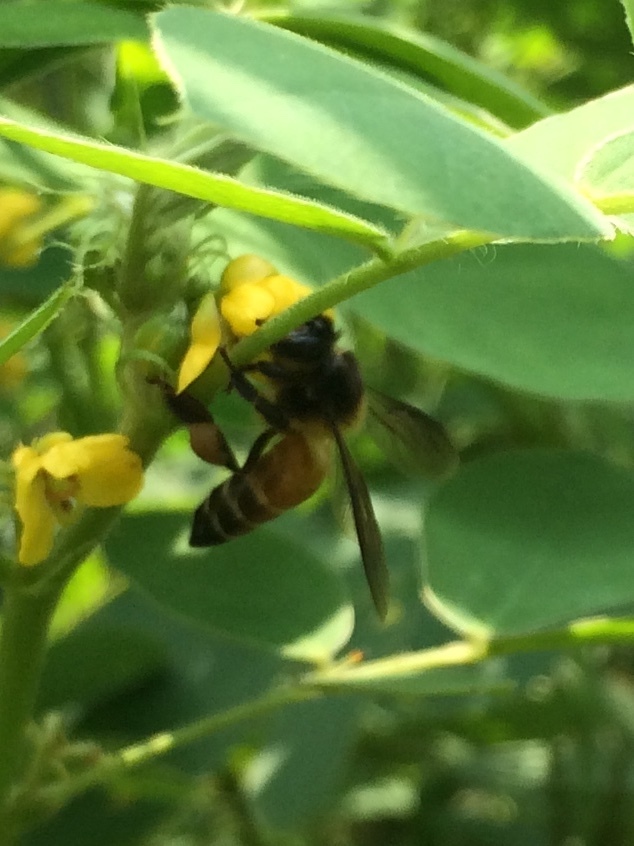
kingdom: Animalia
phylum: Arthropoda
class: Insecta
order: Hymenoptera
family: Apidae
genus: Apis
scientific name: Apis dorsata
